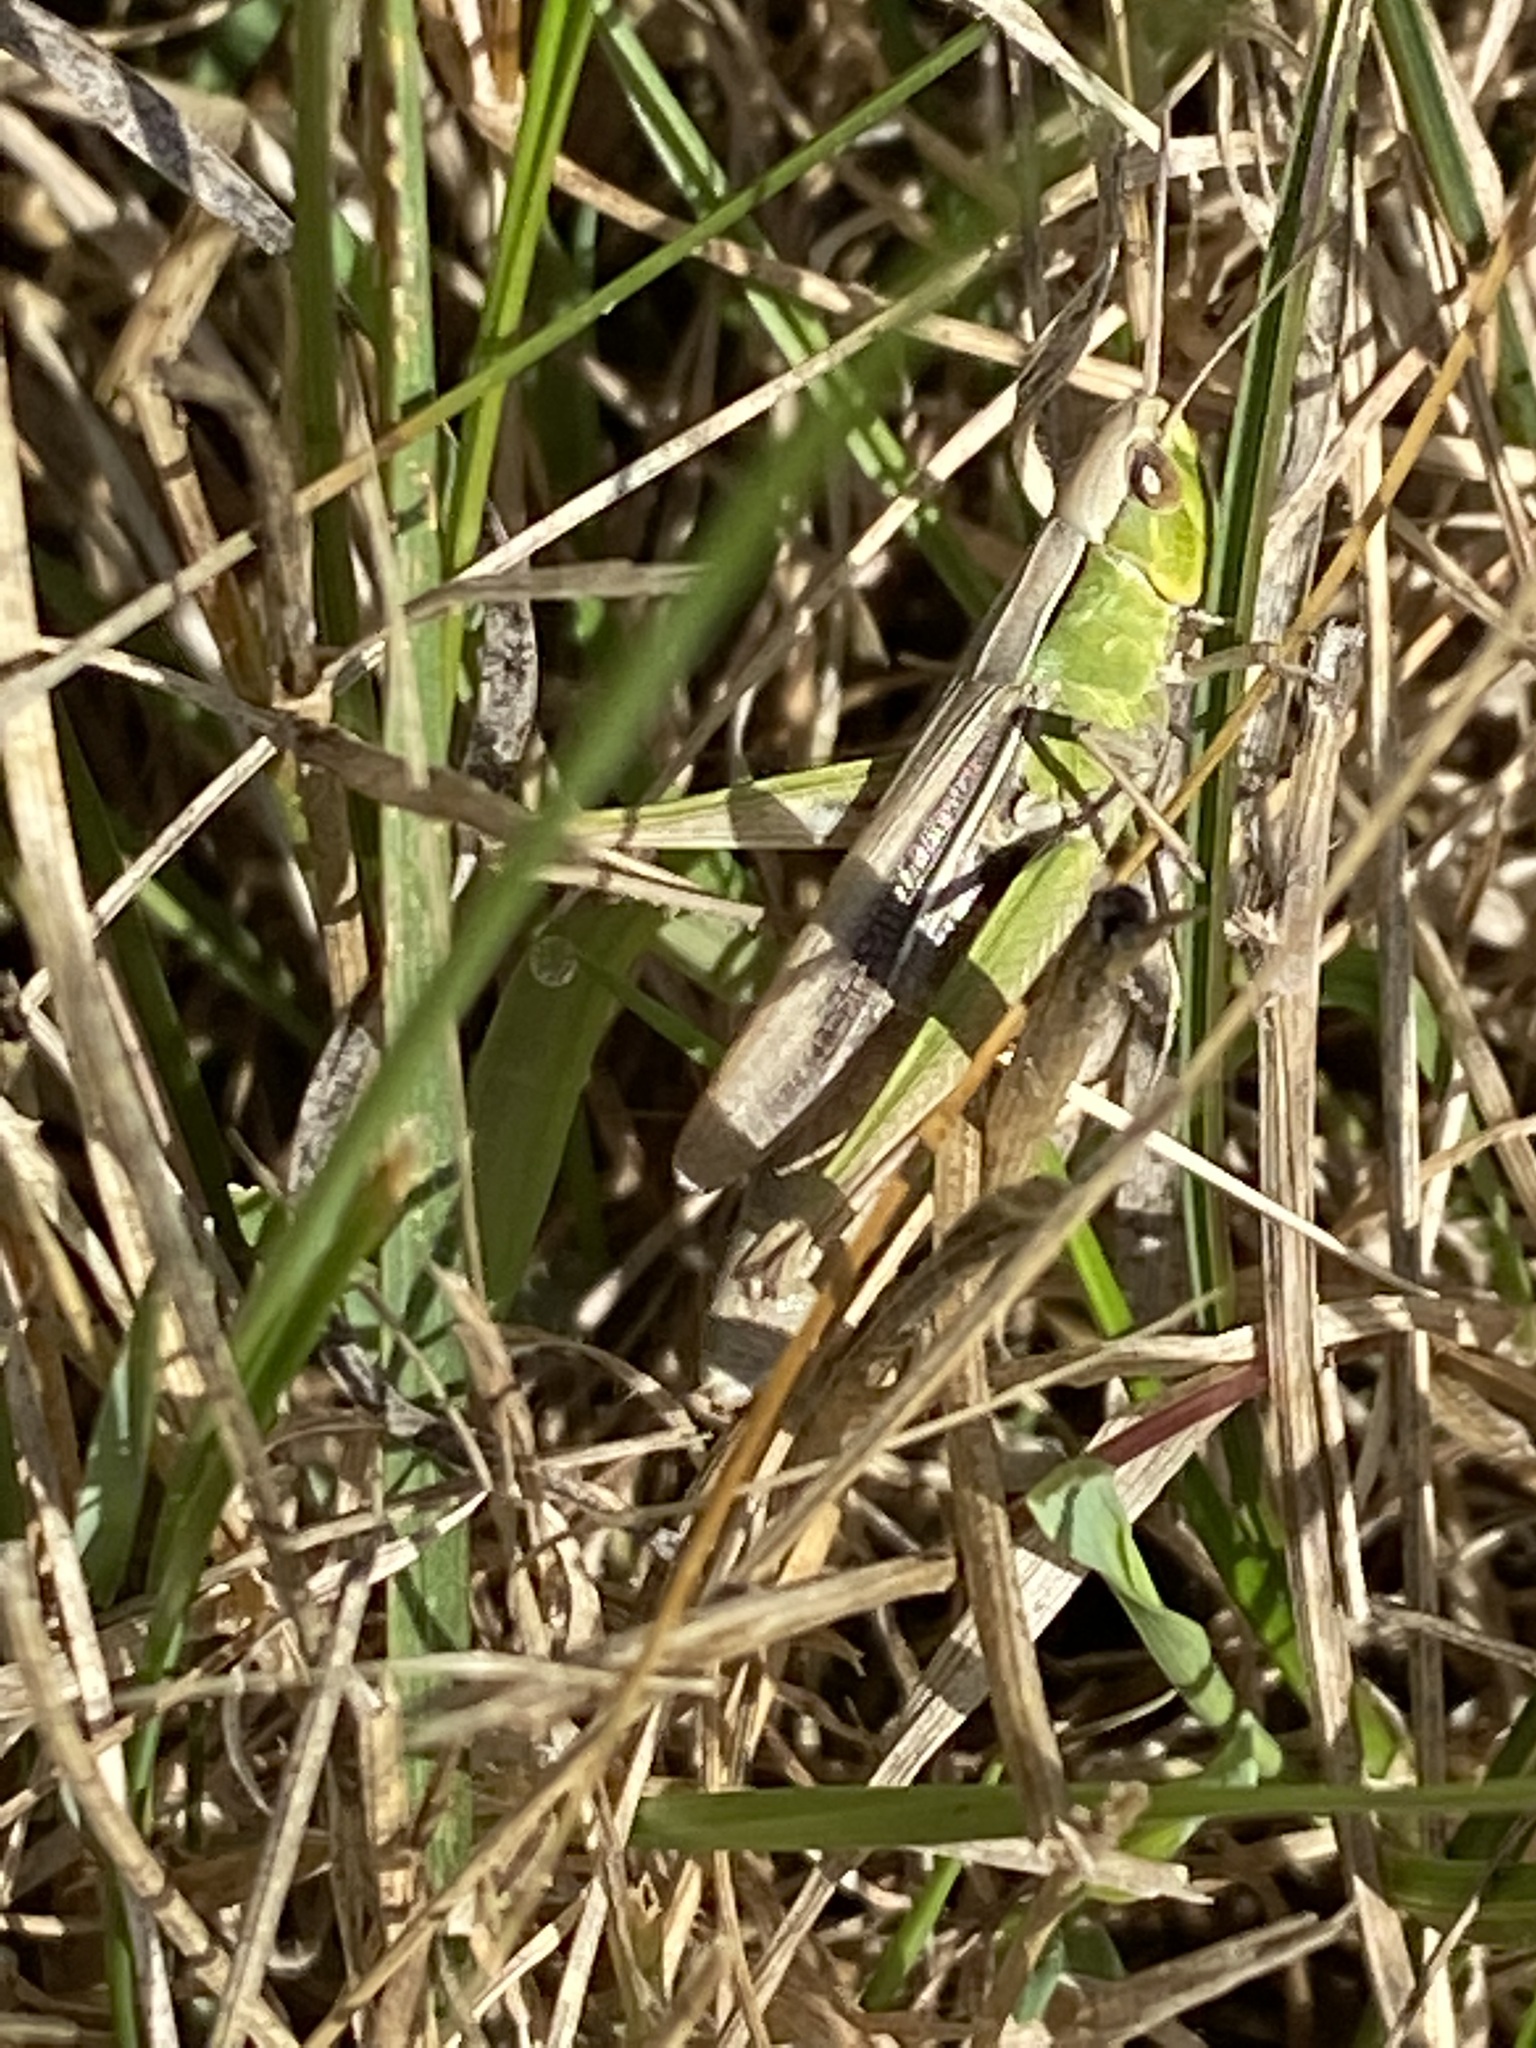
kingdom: Animalia
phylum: Arthropoda
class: Insecta
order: Orthoptera
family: Acrididae
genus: Chorthippus
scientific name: Chorthippus albomarginatus
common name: Lesser marsh grasshopper
